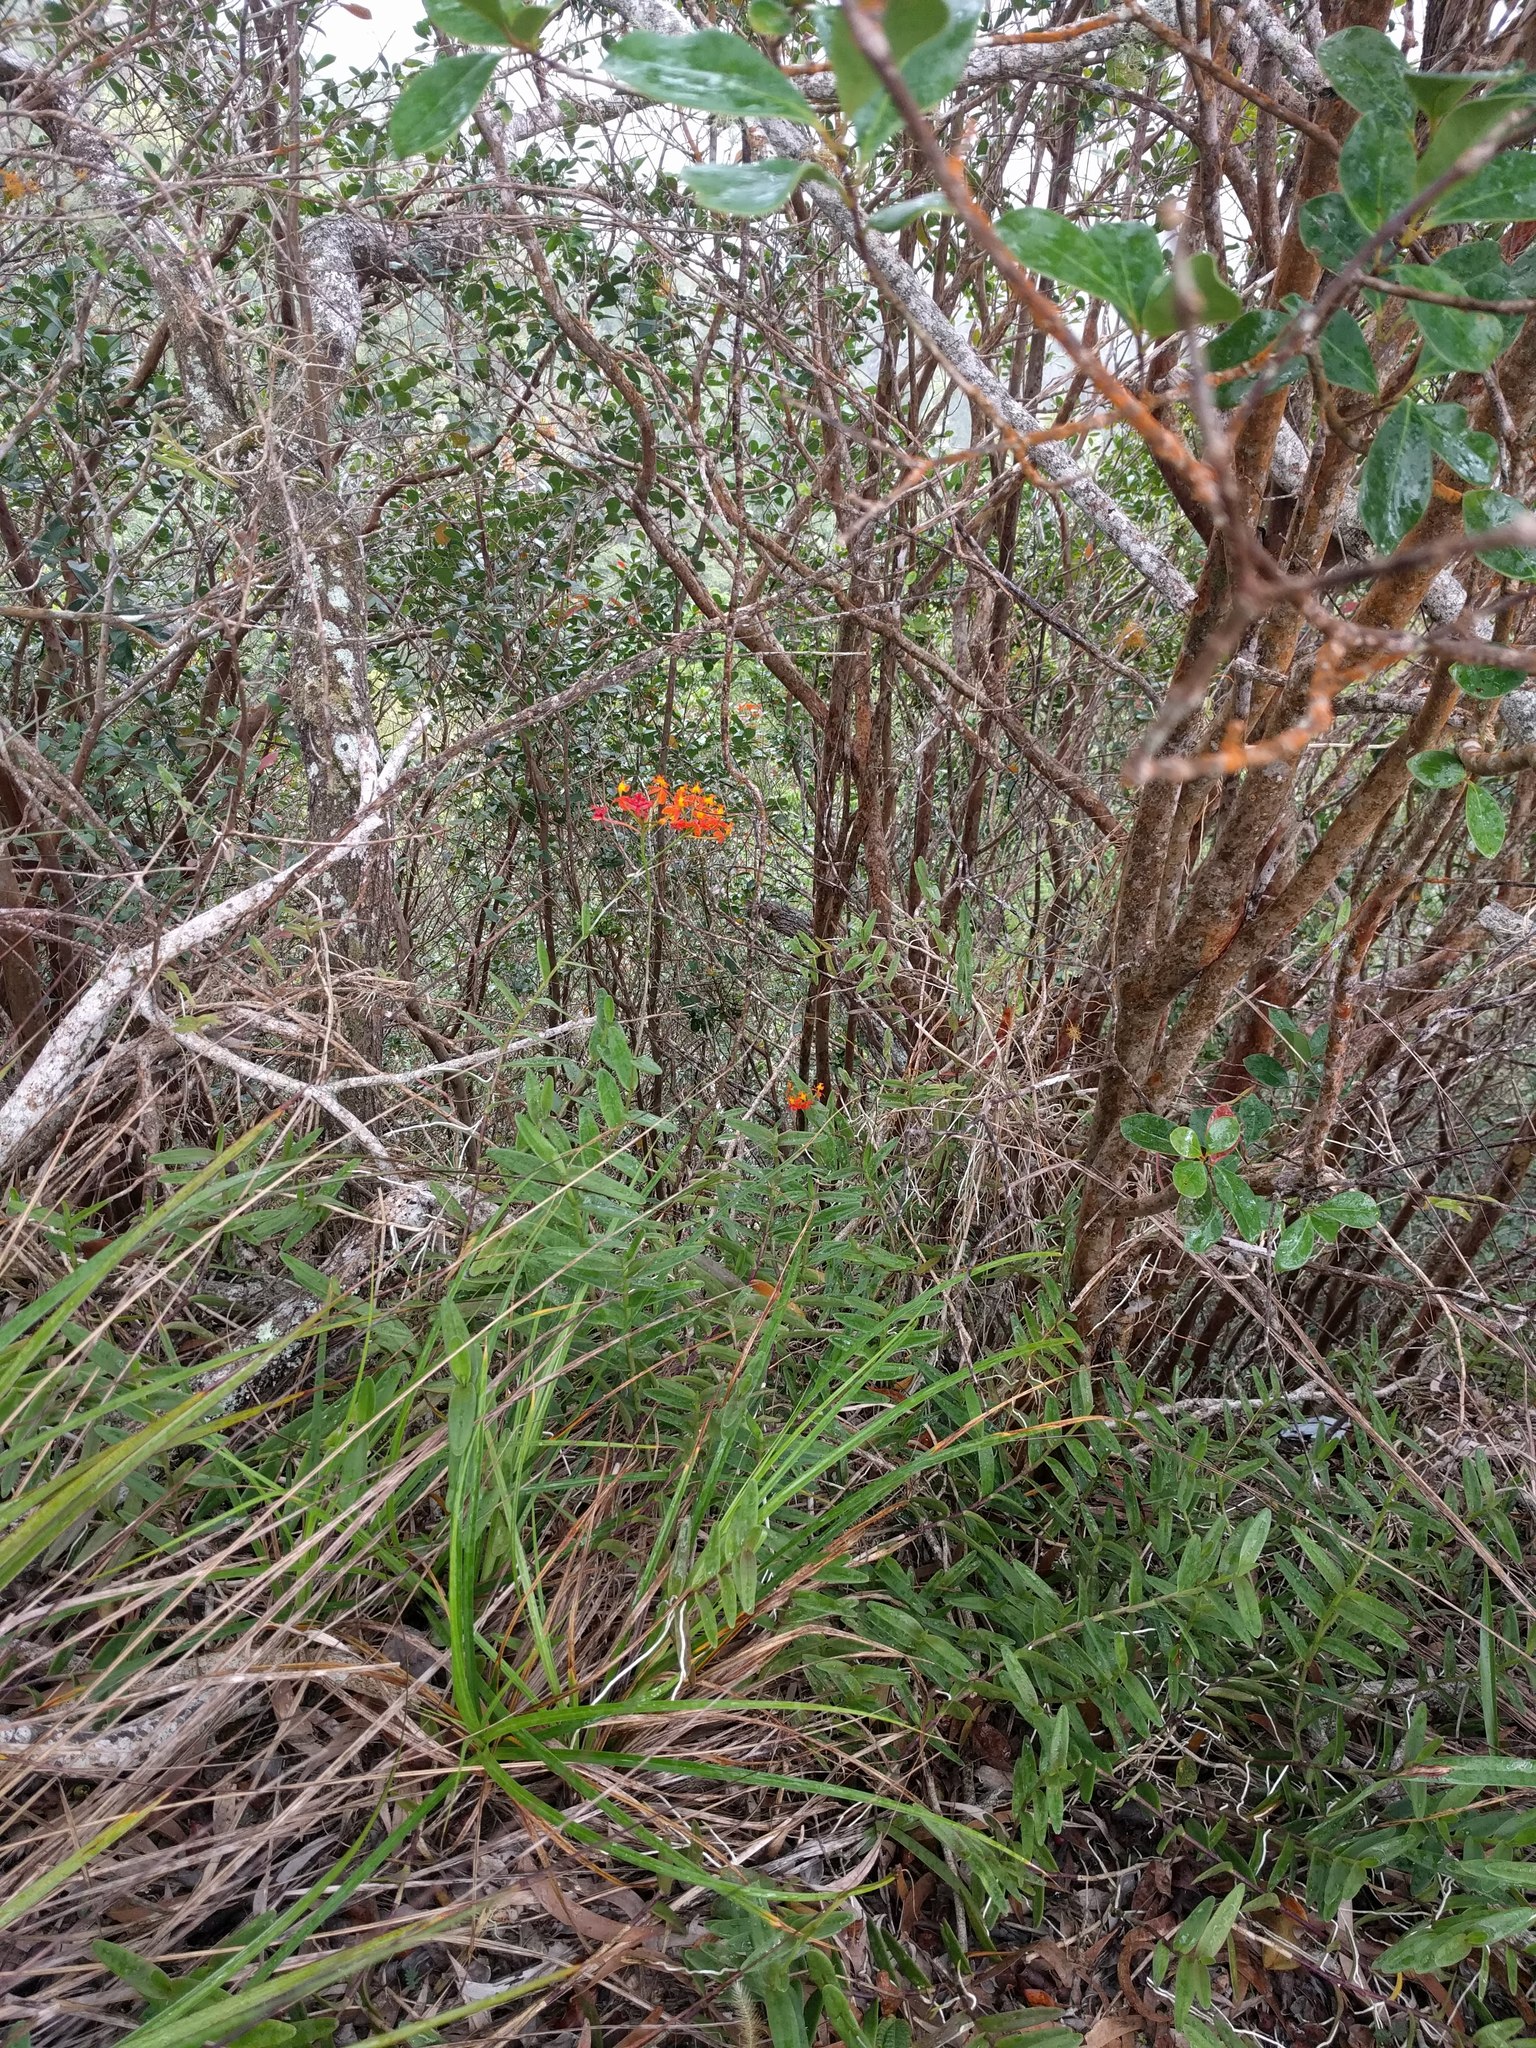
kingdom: Plantae
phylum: Tracheophyta
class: Liliopsida
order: Asparagales
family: Orchidaceae
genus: Epidendrum
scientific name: Epidendrum obrienianum
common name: O'brien's star orchid
